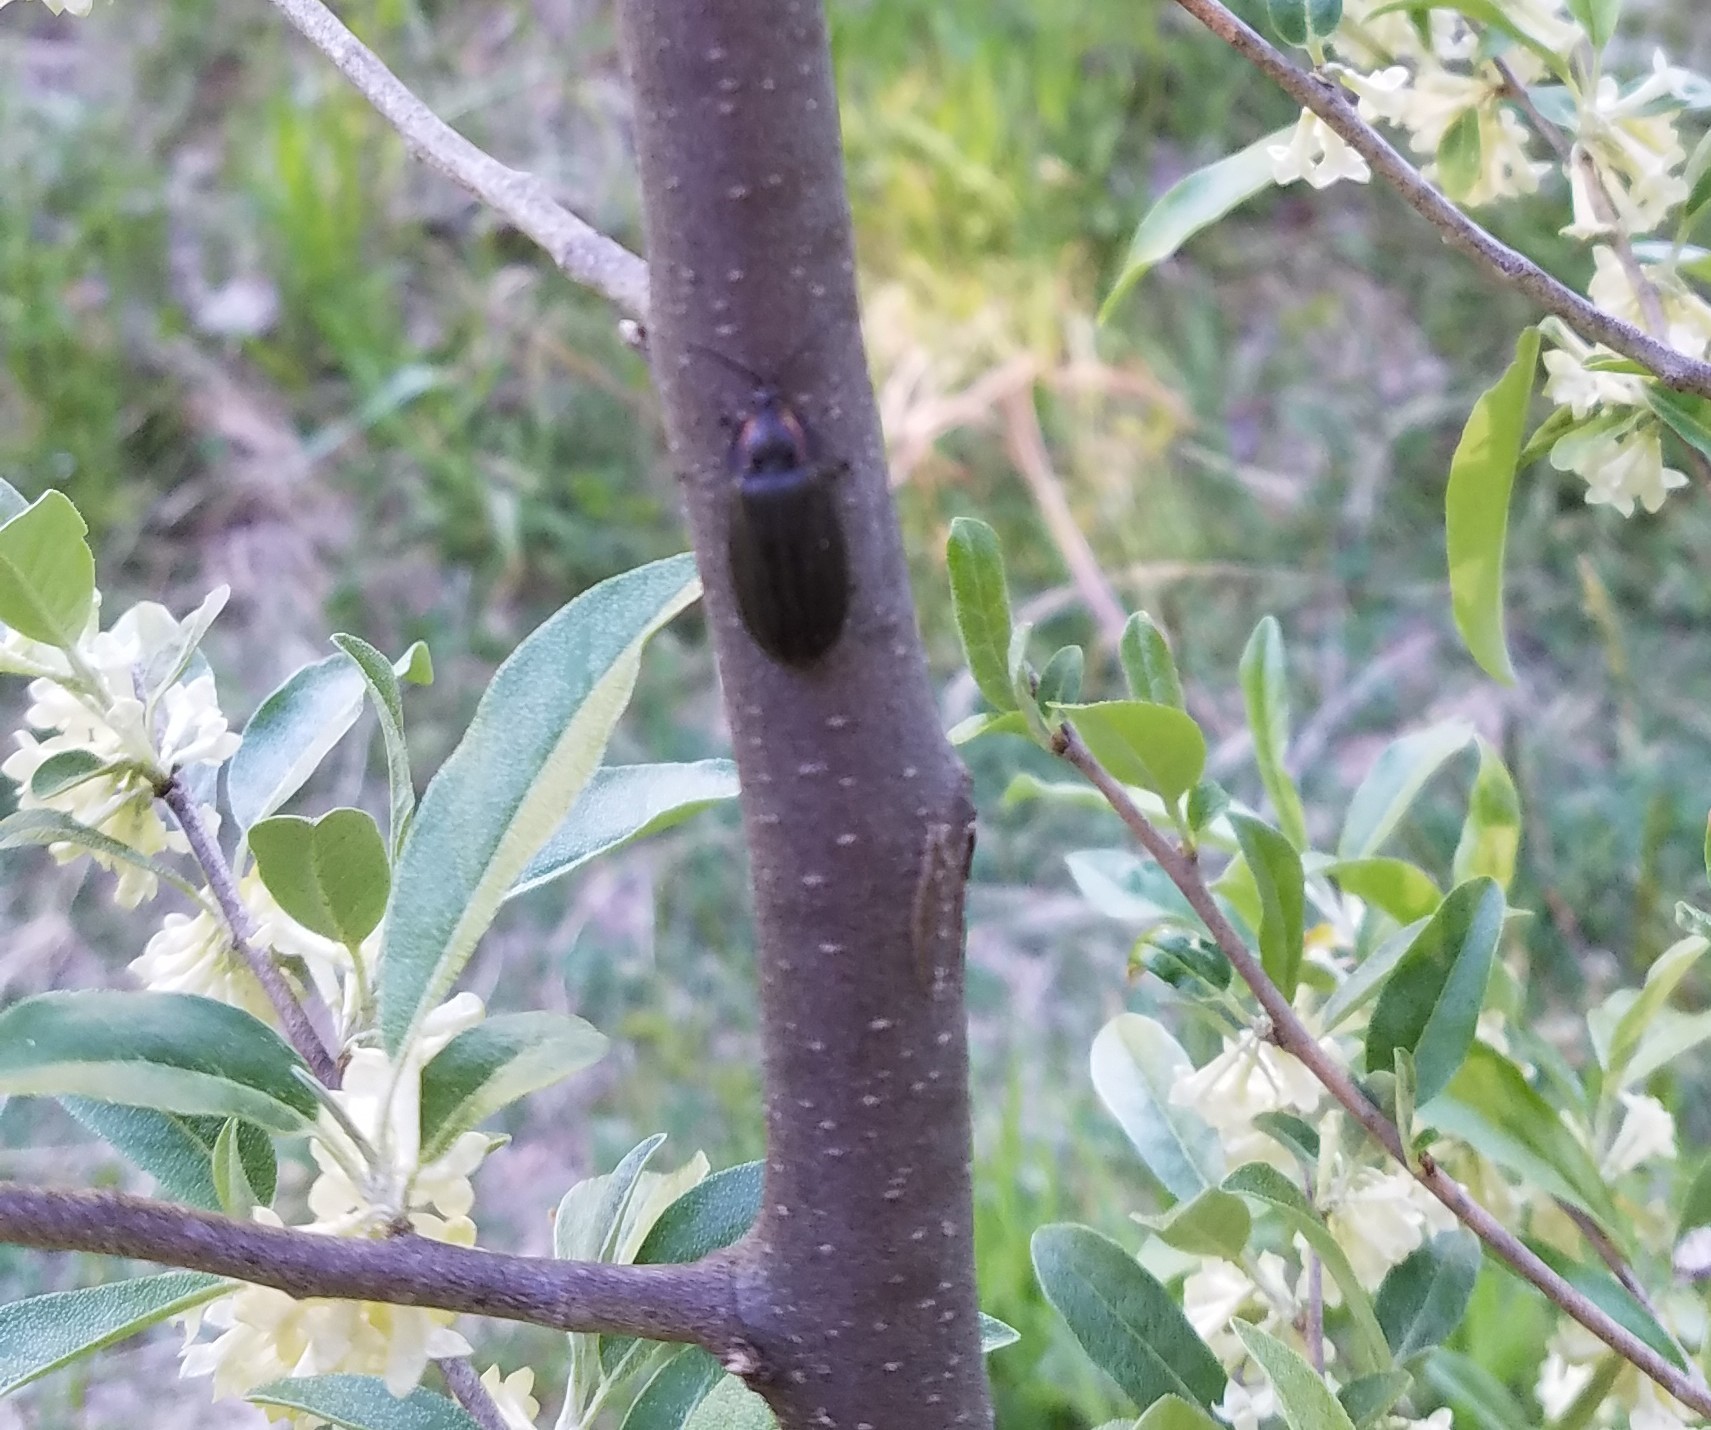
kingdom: Animalia
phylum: Arthropoda
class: Insecta
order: Coleoptera
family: Lampyridae
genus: Photinus
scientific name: Photinus corrusca
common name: Winter firefly
